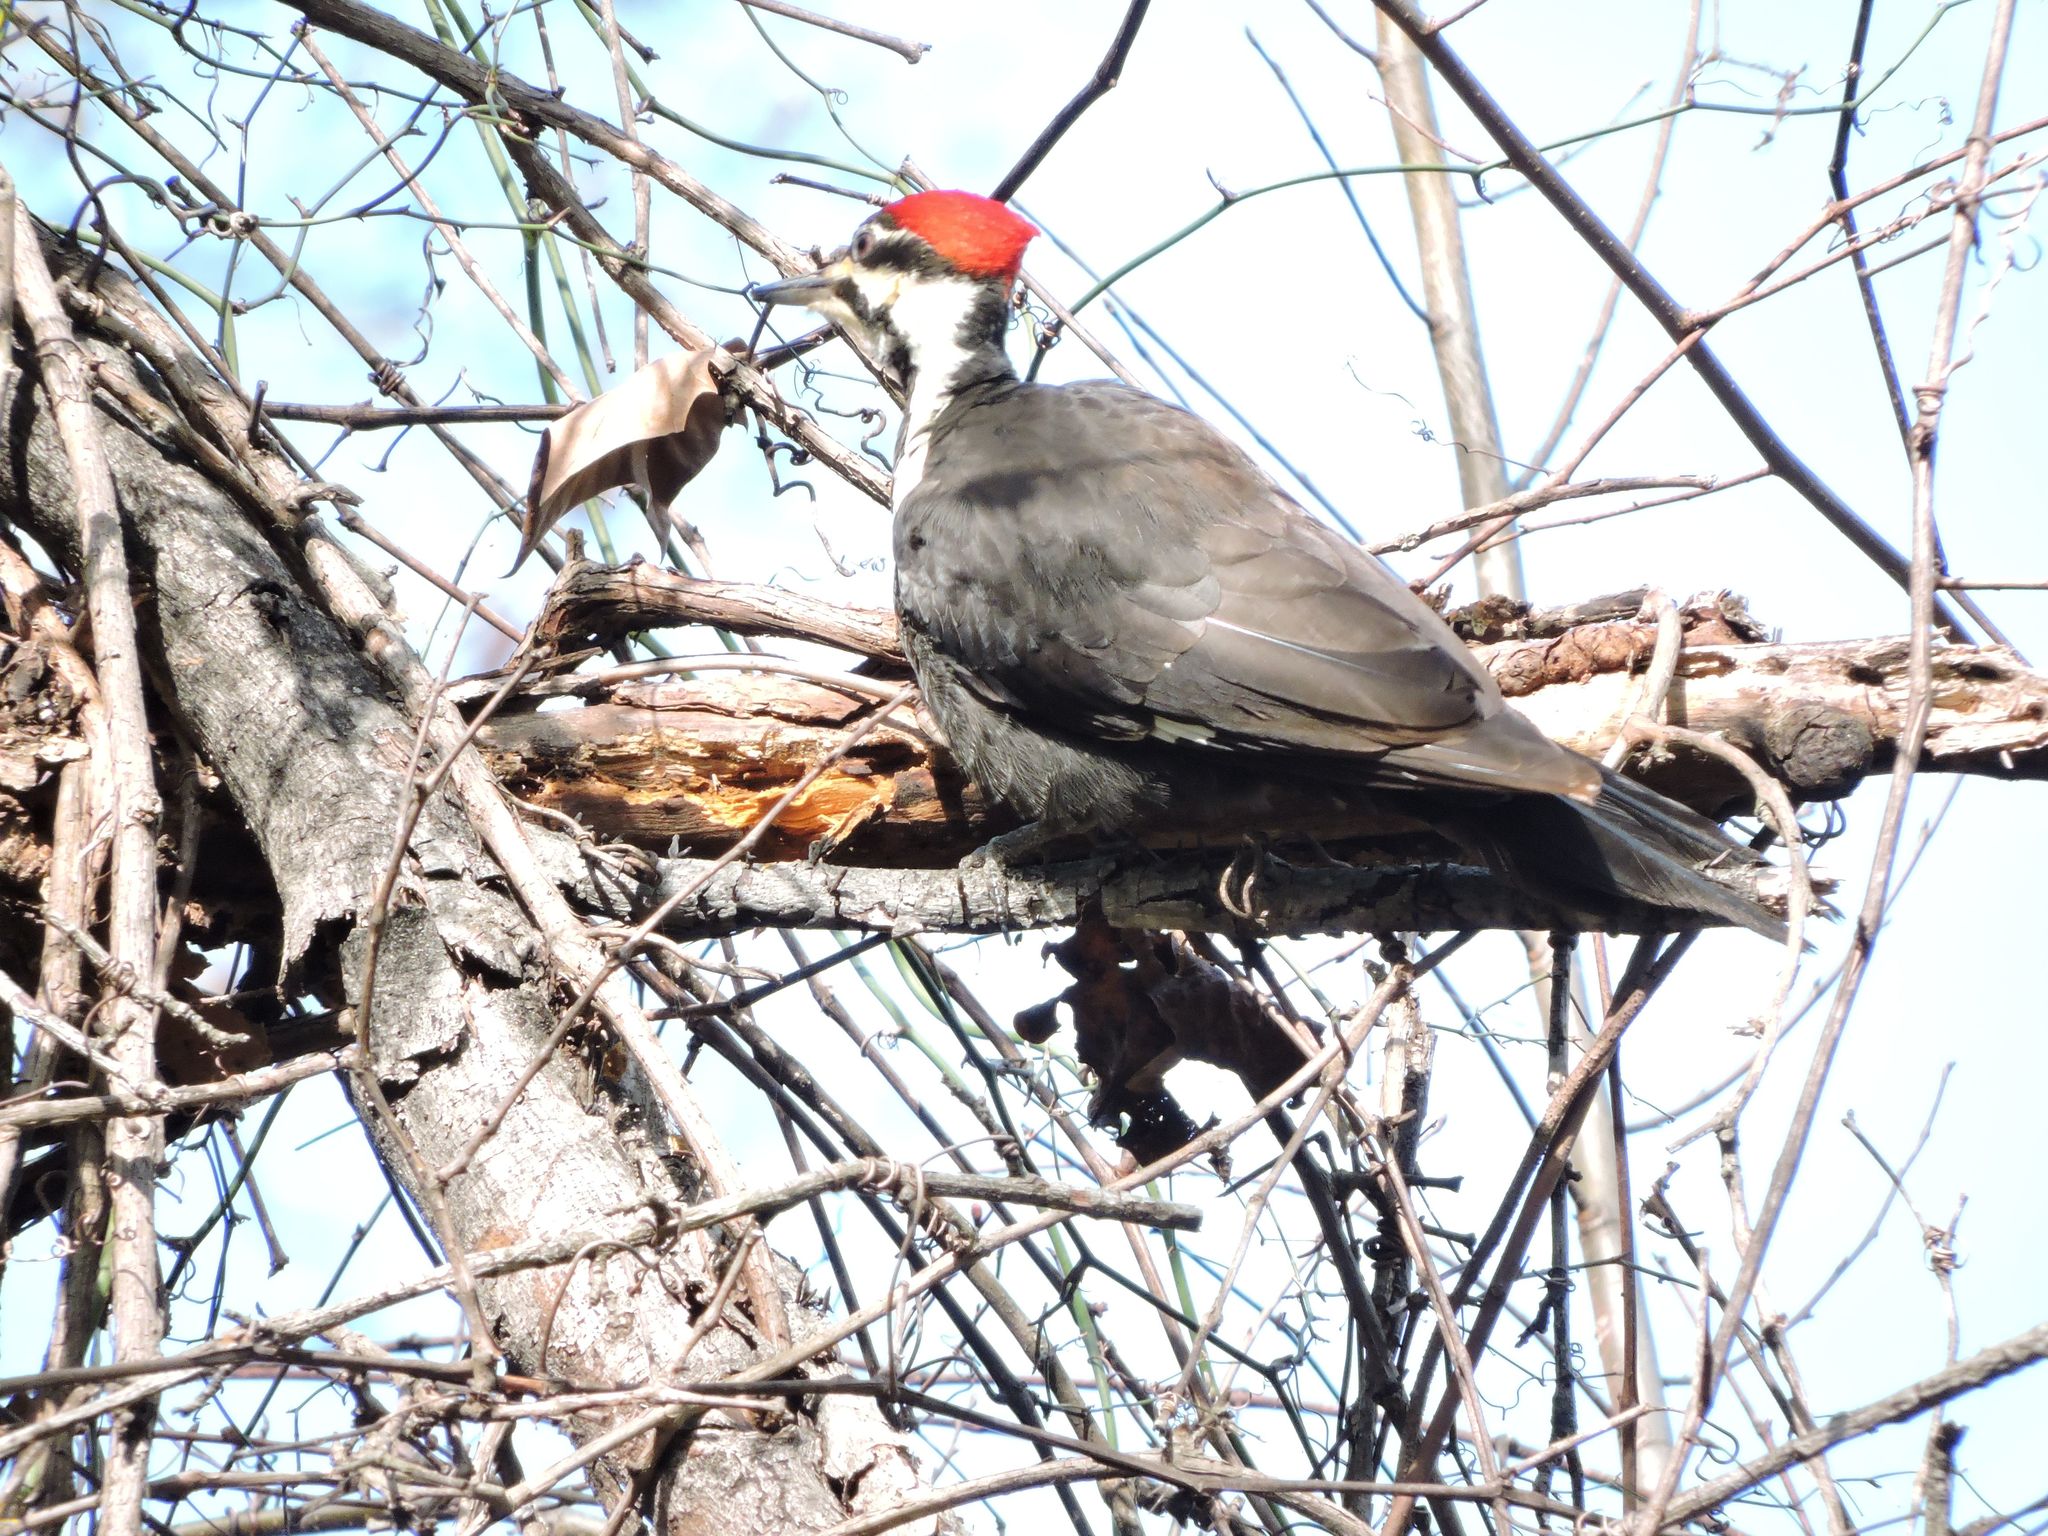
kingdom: Animalia
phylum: Chordata
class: Aves
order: Piciformes
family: Picidae
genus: Dryocopus
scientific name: Dryocopus pileatus
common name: Pileated woodpecker
